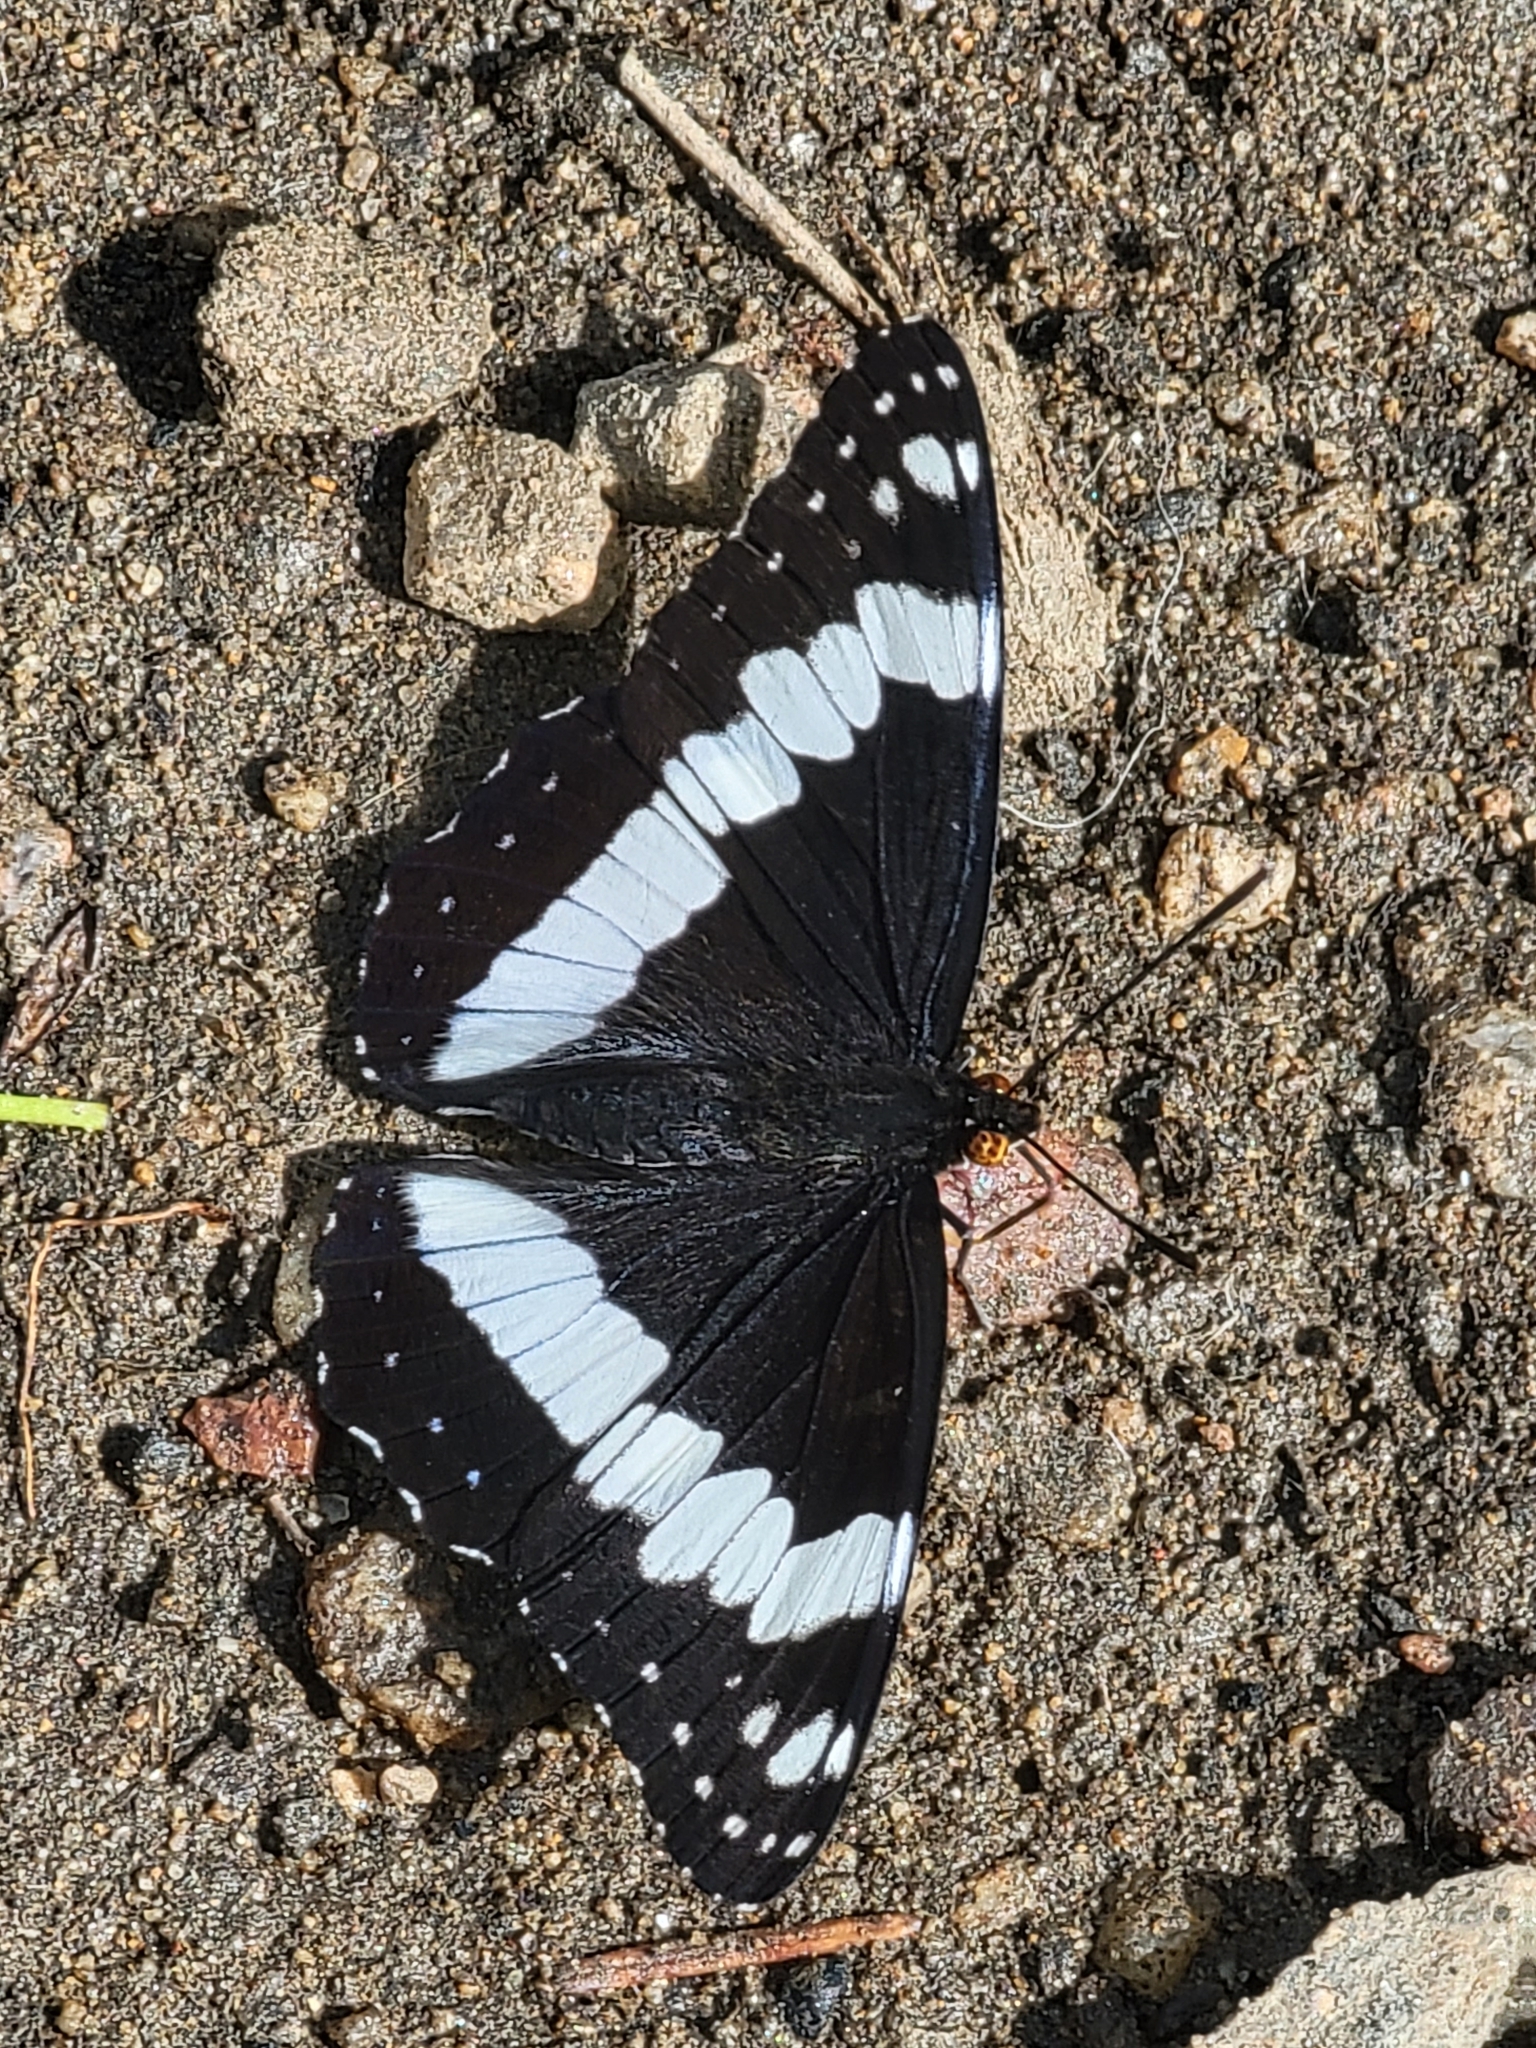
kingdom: Animalia
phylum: Arthropoda
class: Insecta
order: Lepidoptera
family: Nymphalidae
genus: Limenitis
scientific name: Limenitis weidemeyerii
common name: Weidemeyer's admiral
